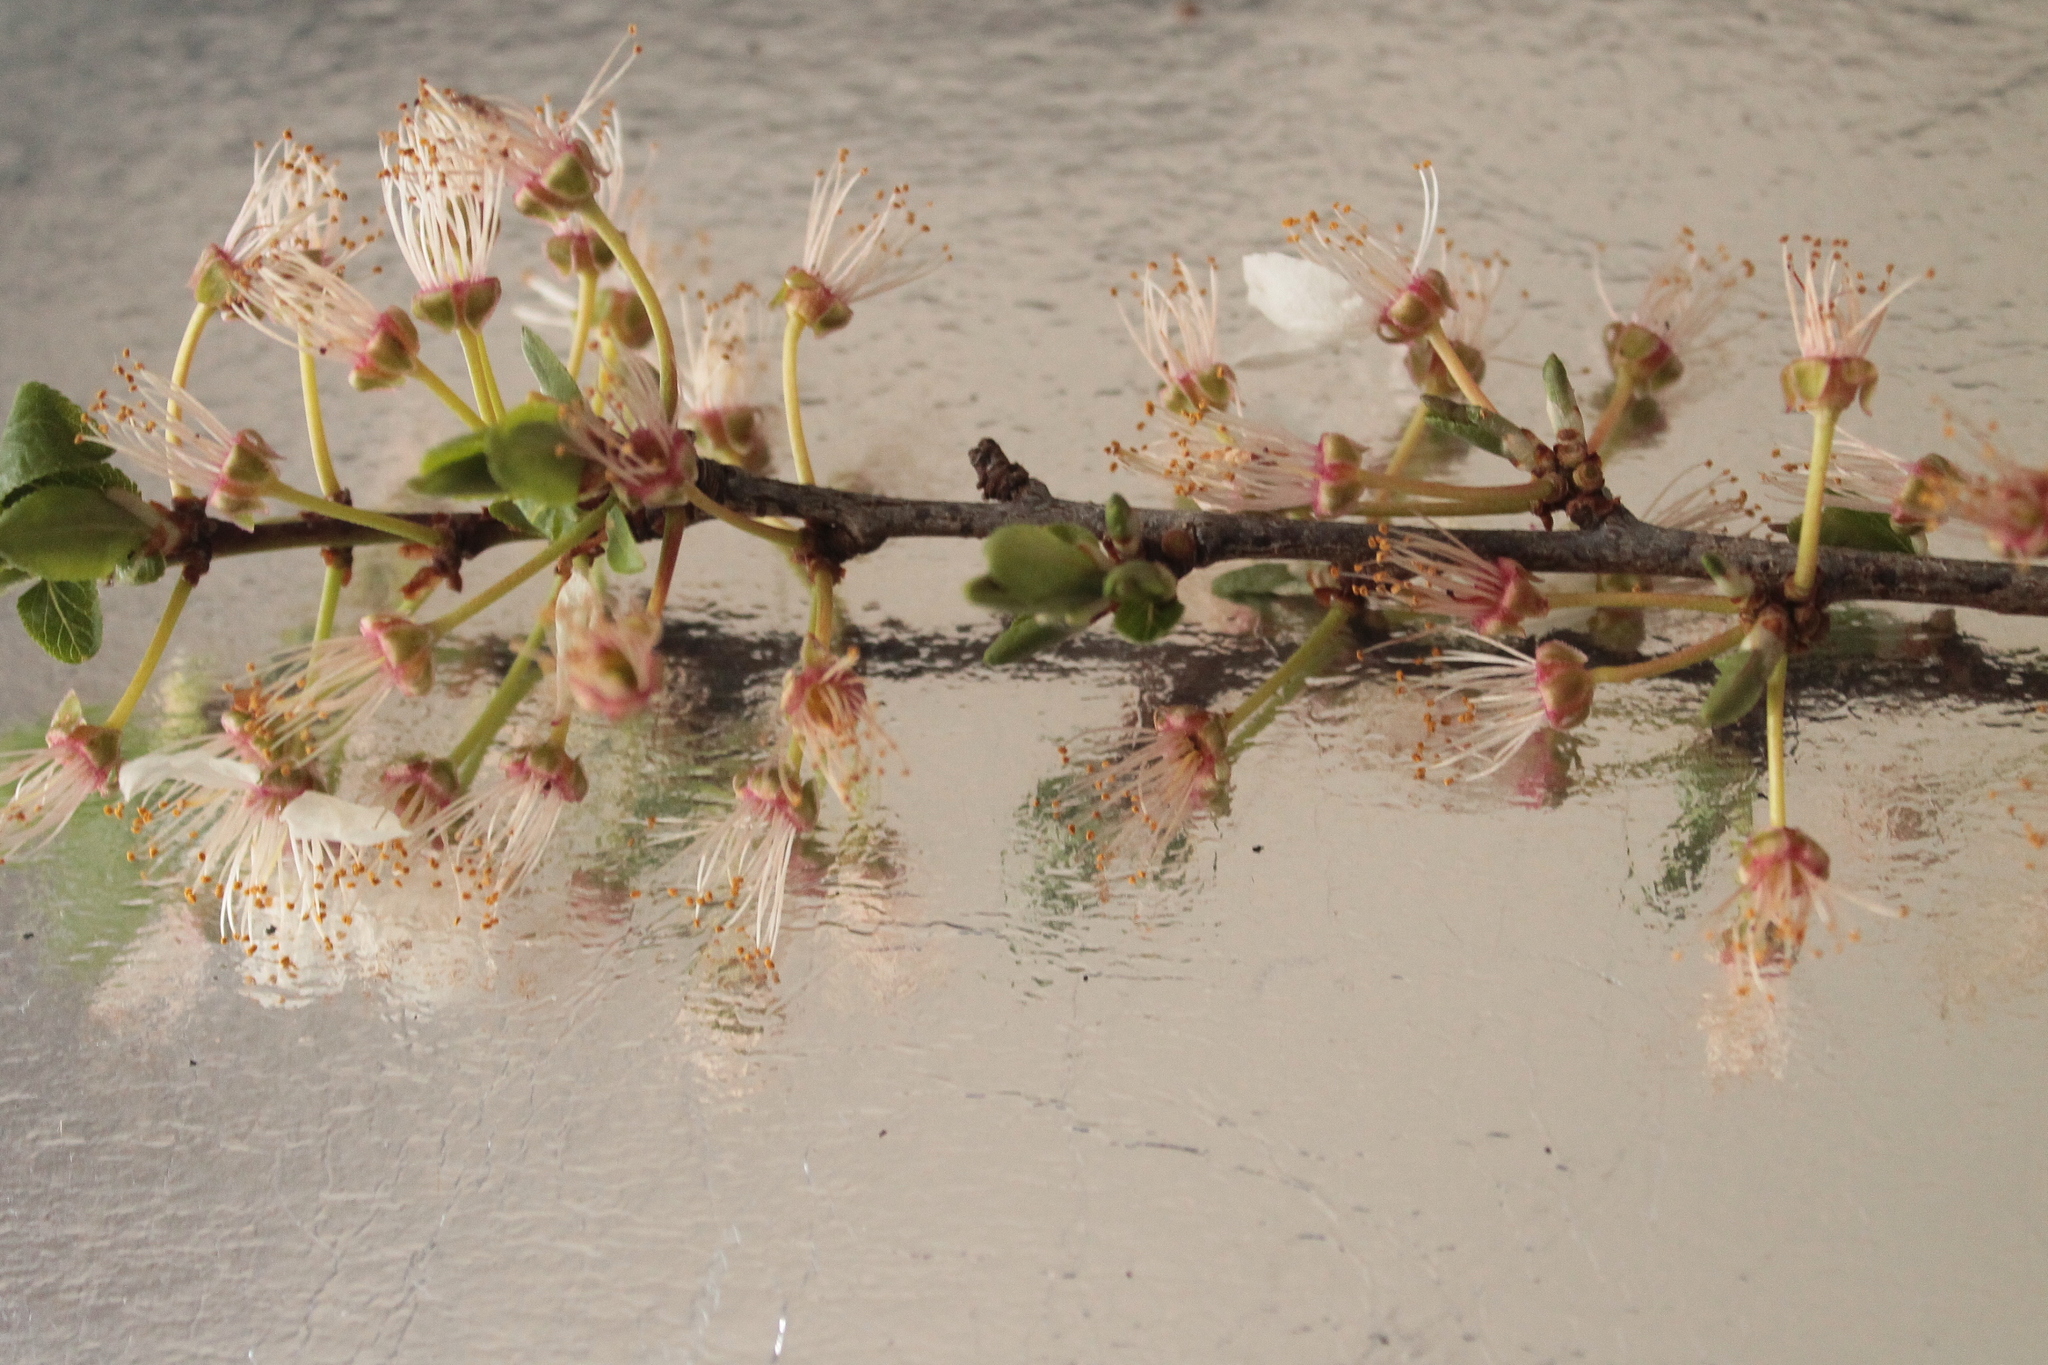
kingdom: Plantae
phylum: Tracheophyta
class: Magnoliopsida
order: Rosales
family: Rosaceae
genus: Prunus
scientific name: Prunus cerasifera
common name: Cherry plum
